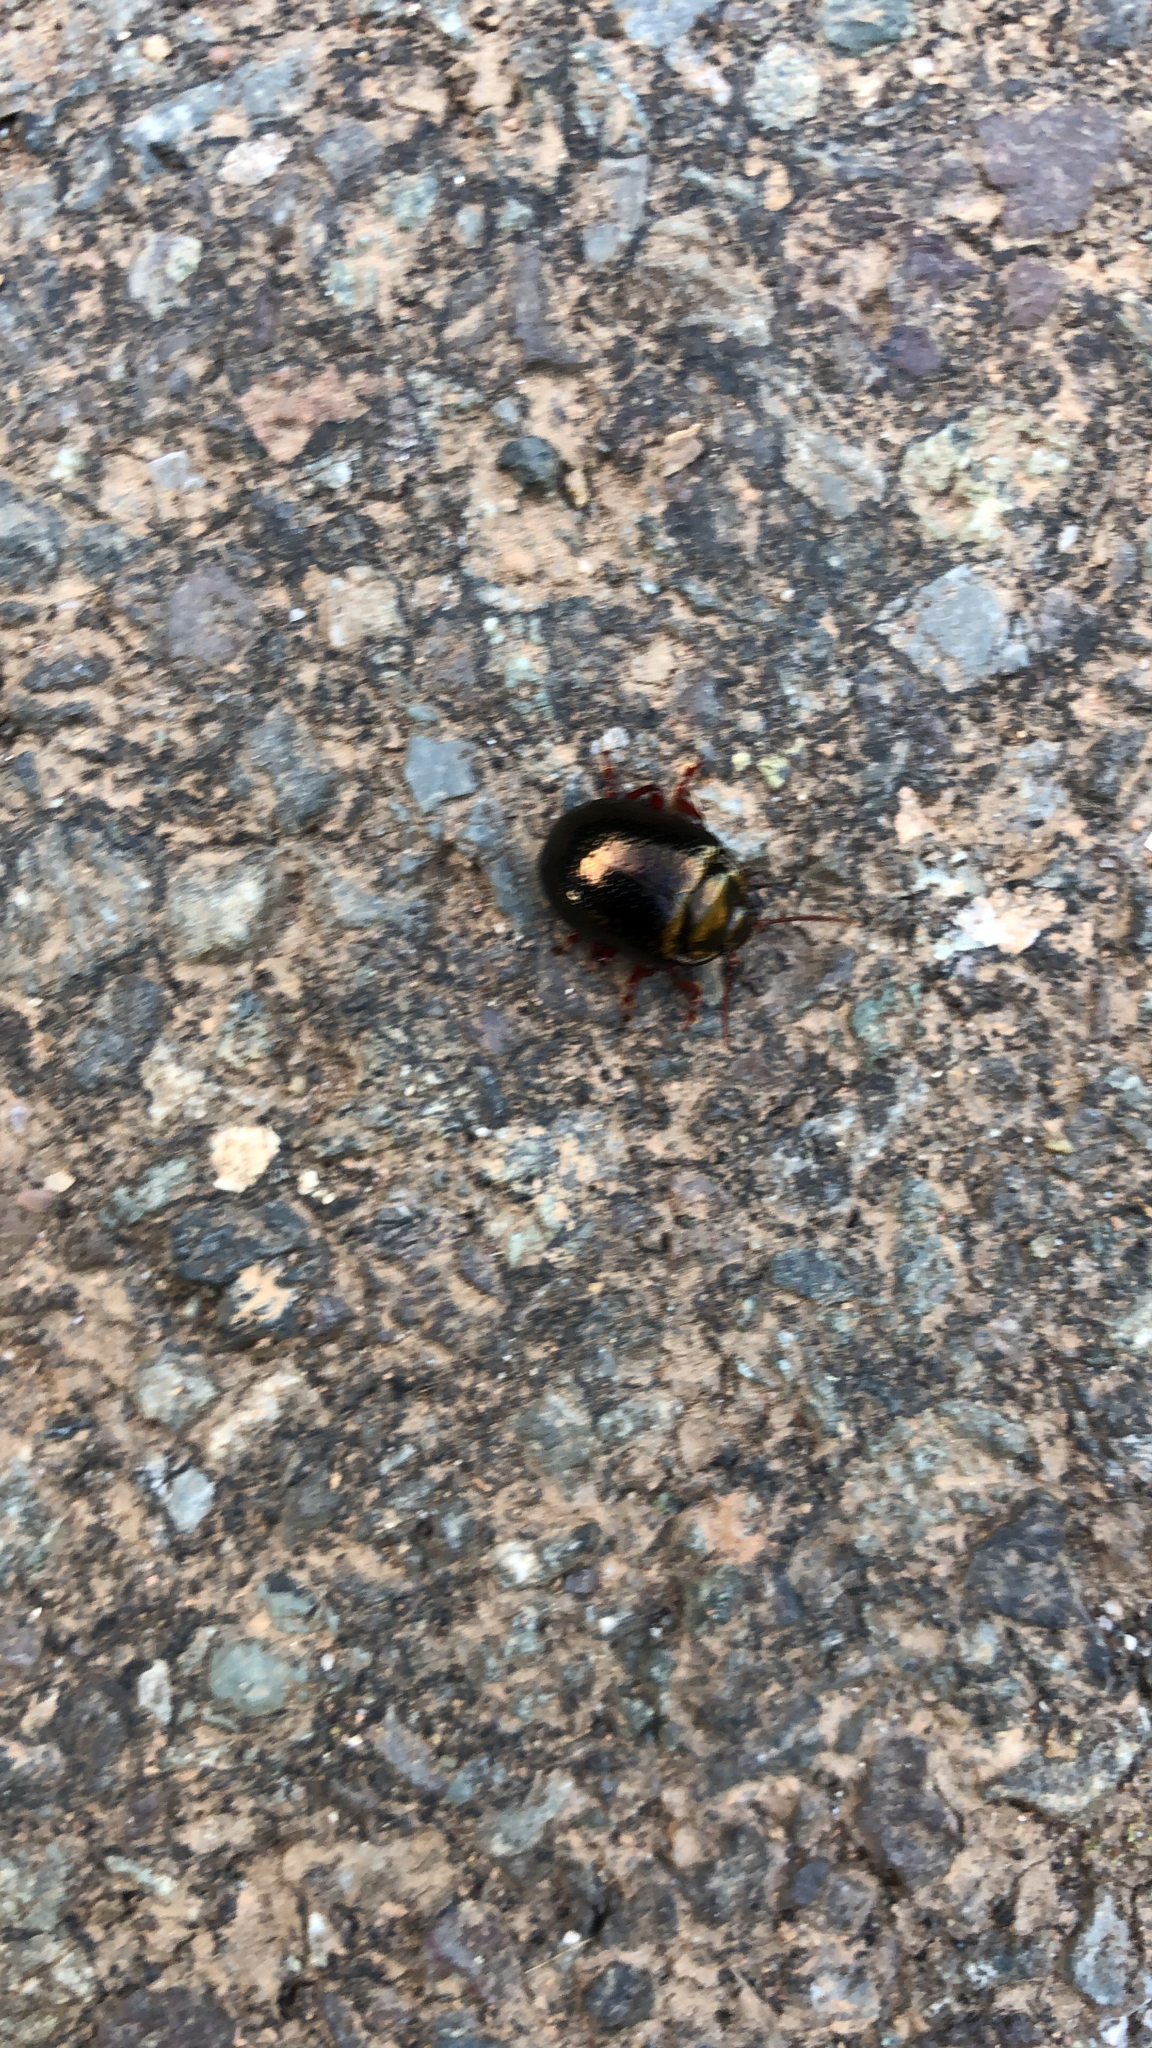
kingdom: Animalia
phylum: Arthropoda
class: Insecta
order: Coleoptera
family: Chrysomelidae
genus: Chrysolina
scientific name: Chrysolina bankii
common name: Leaf beetle
